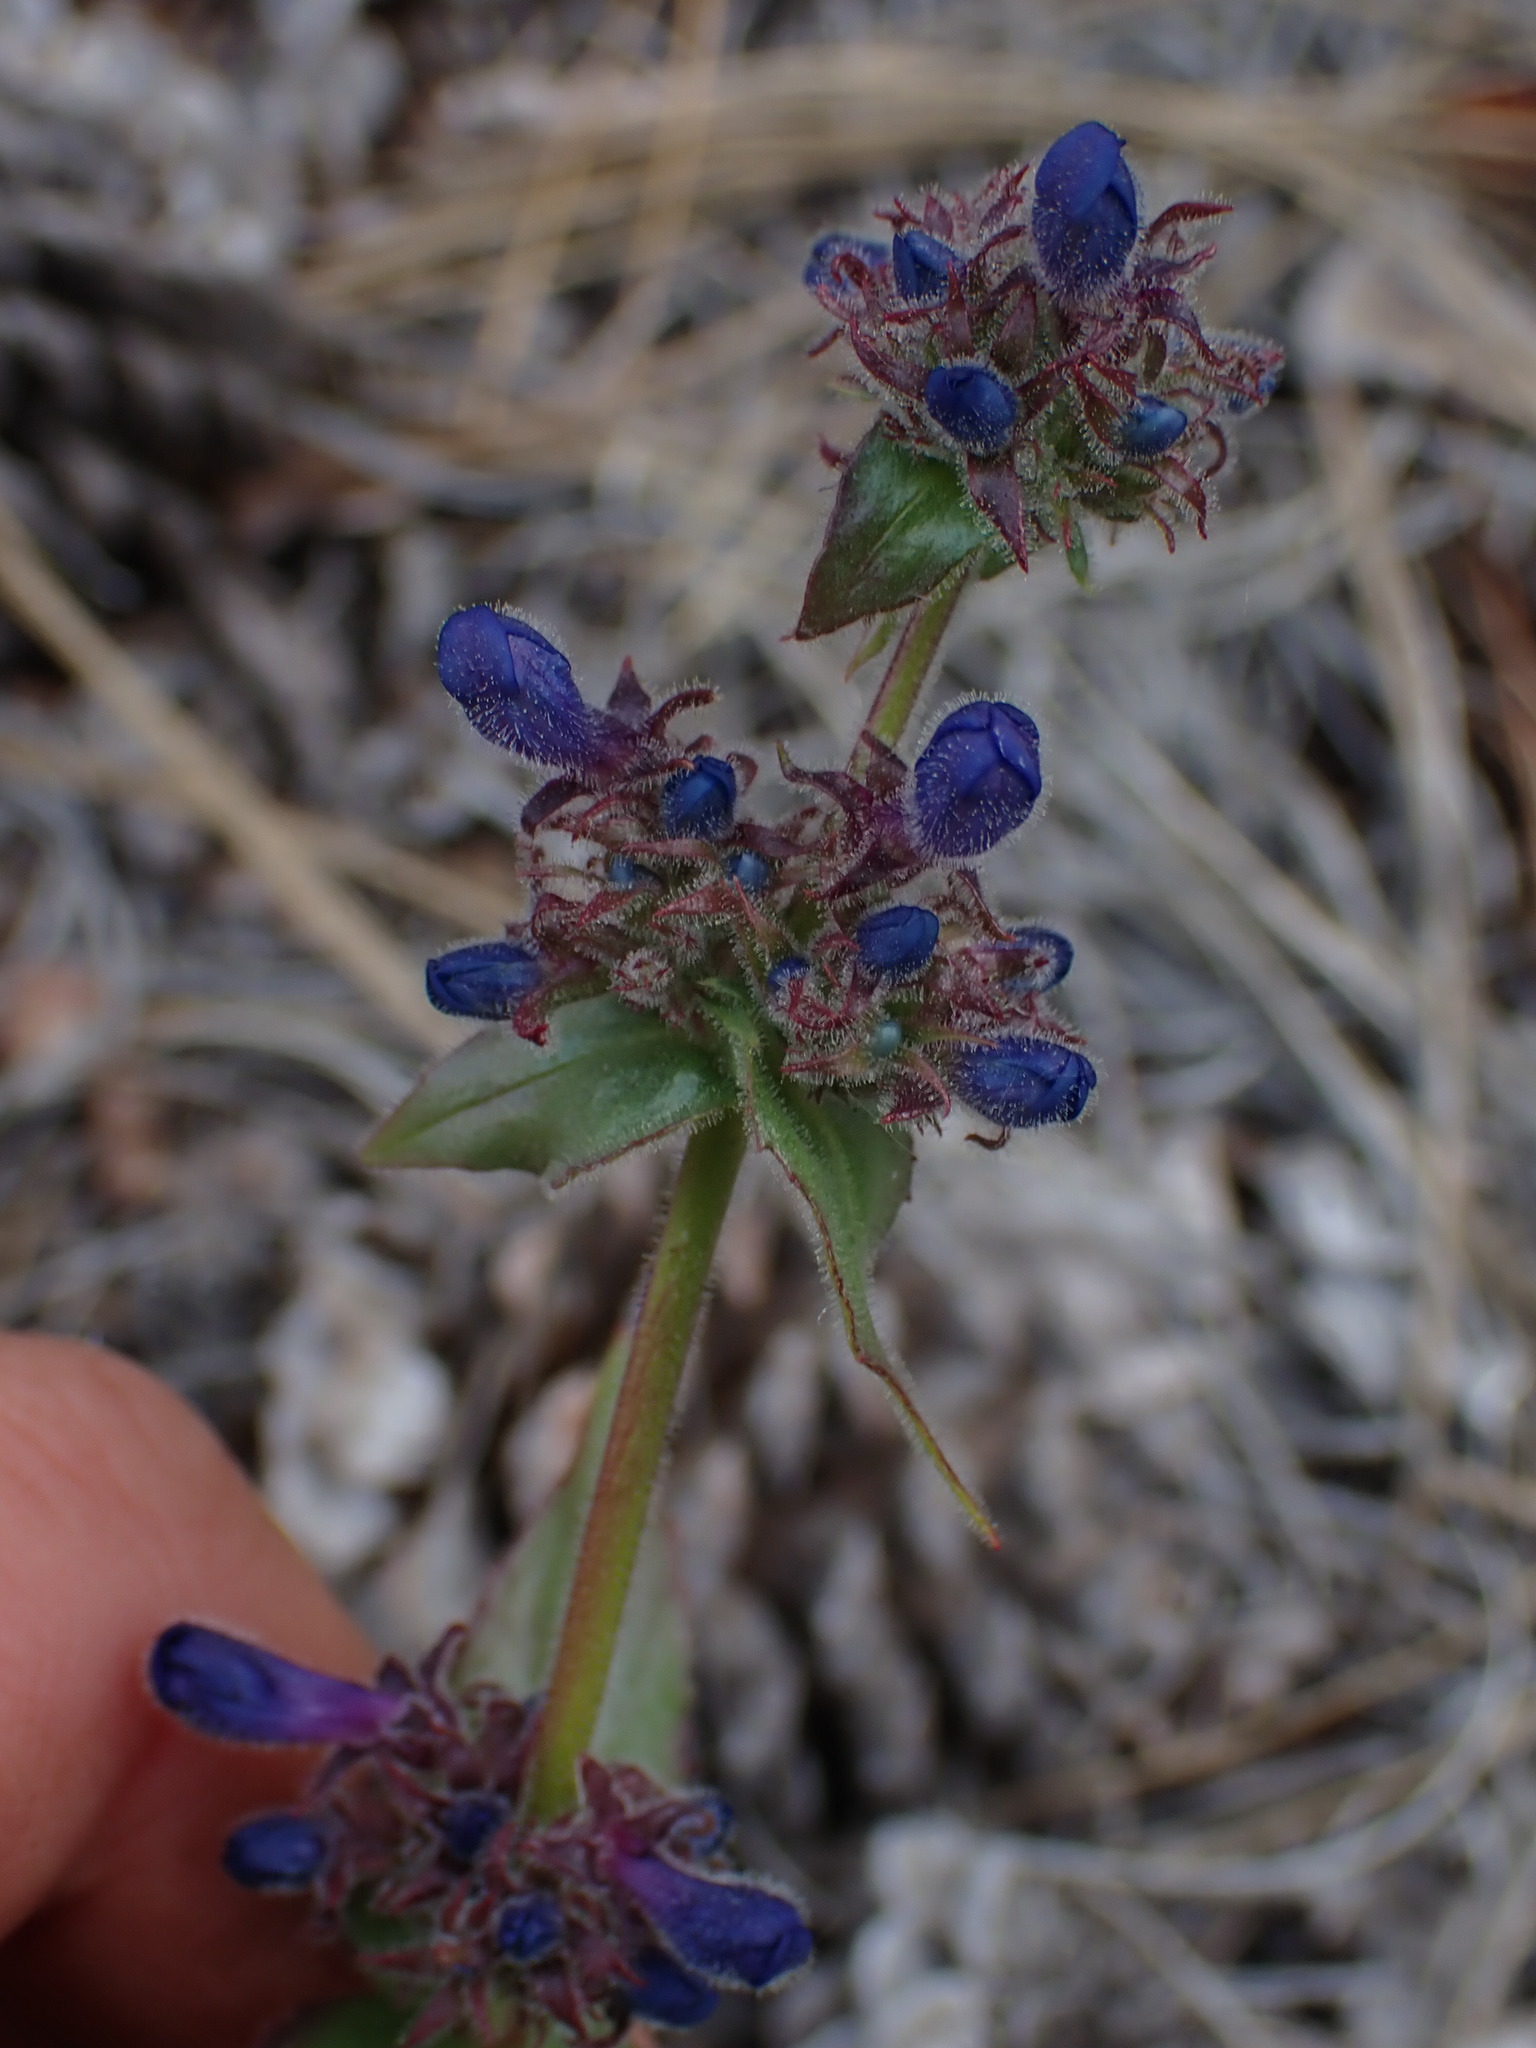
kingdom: Plantae
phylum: Tracheophyta
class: Magnoliopsida
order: Lamiales
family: Plantaginaceae
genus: Penstemon
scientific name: Penstemon pruinosus
